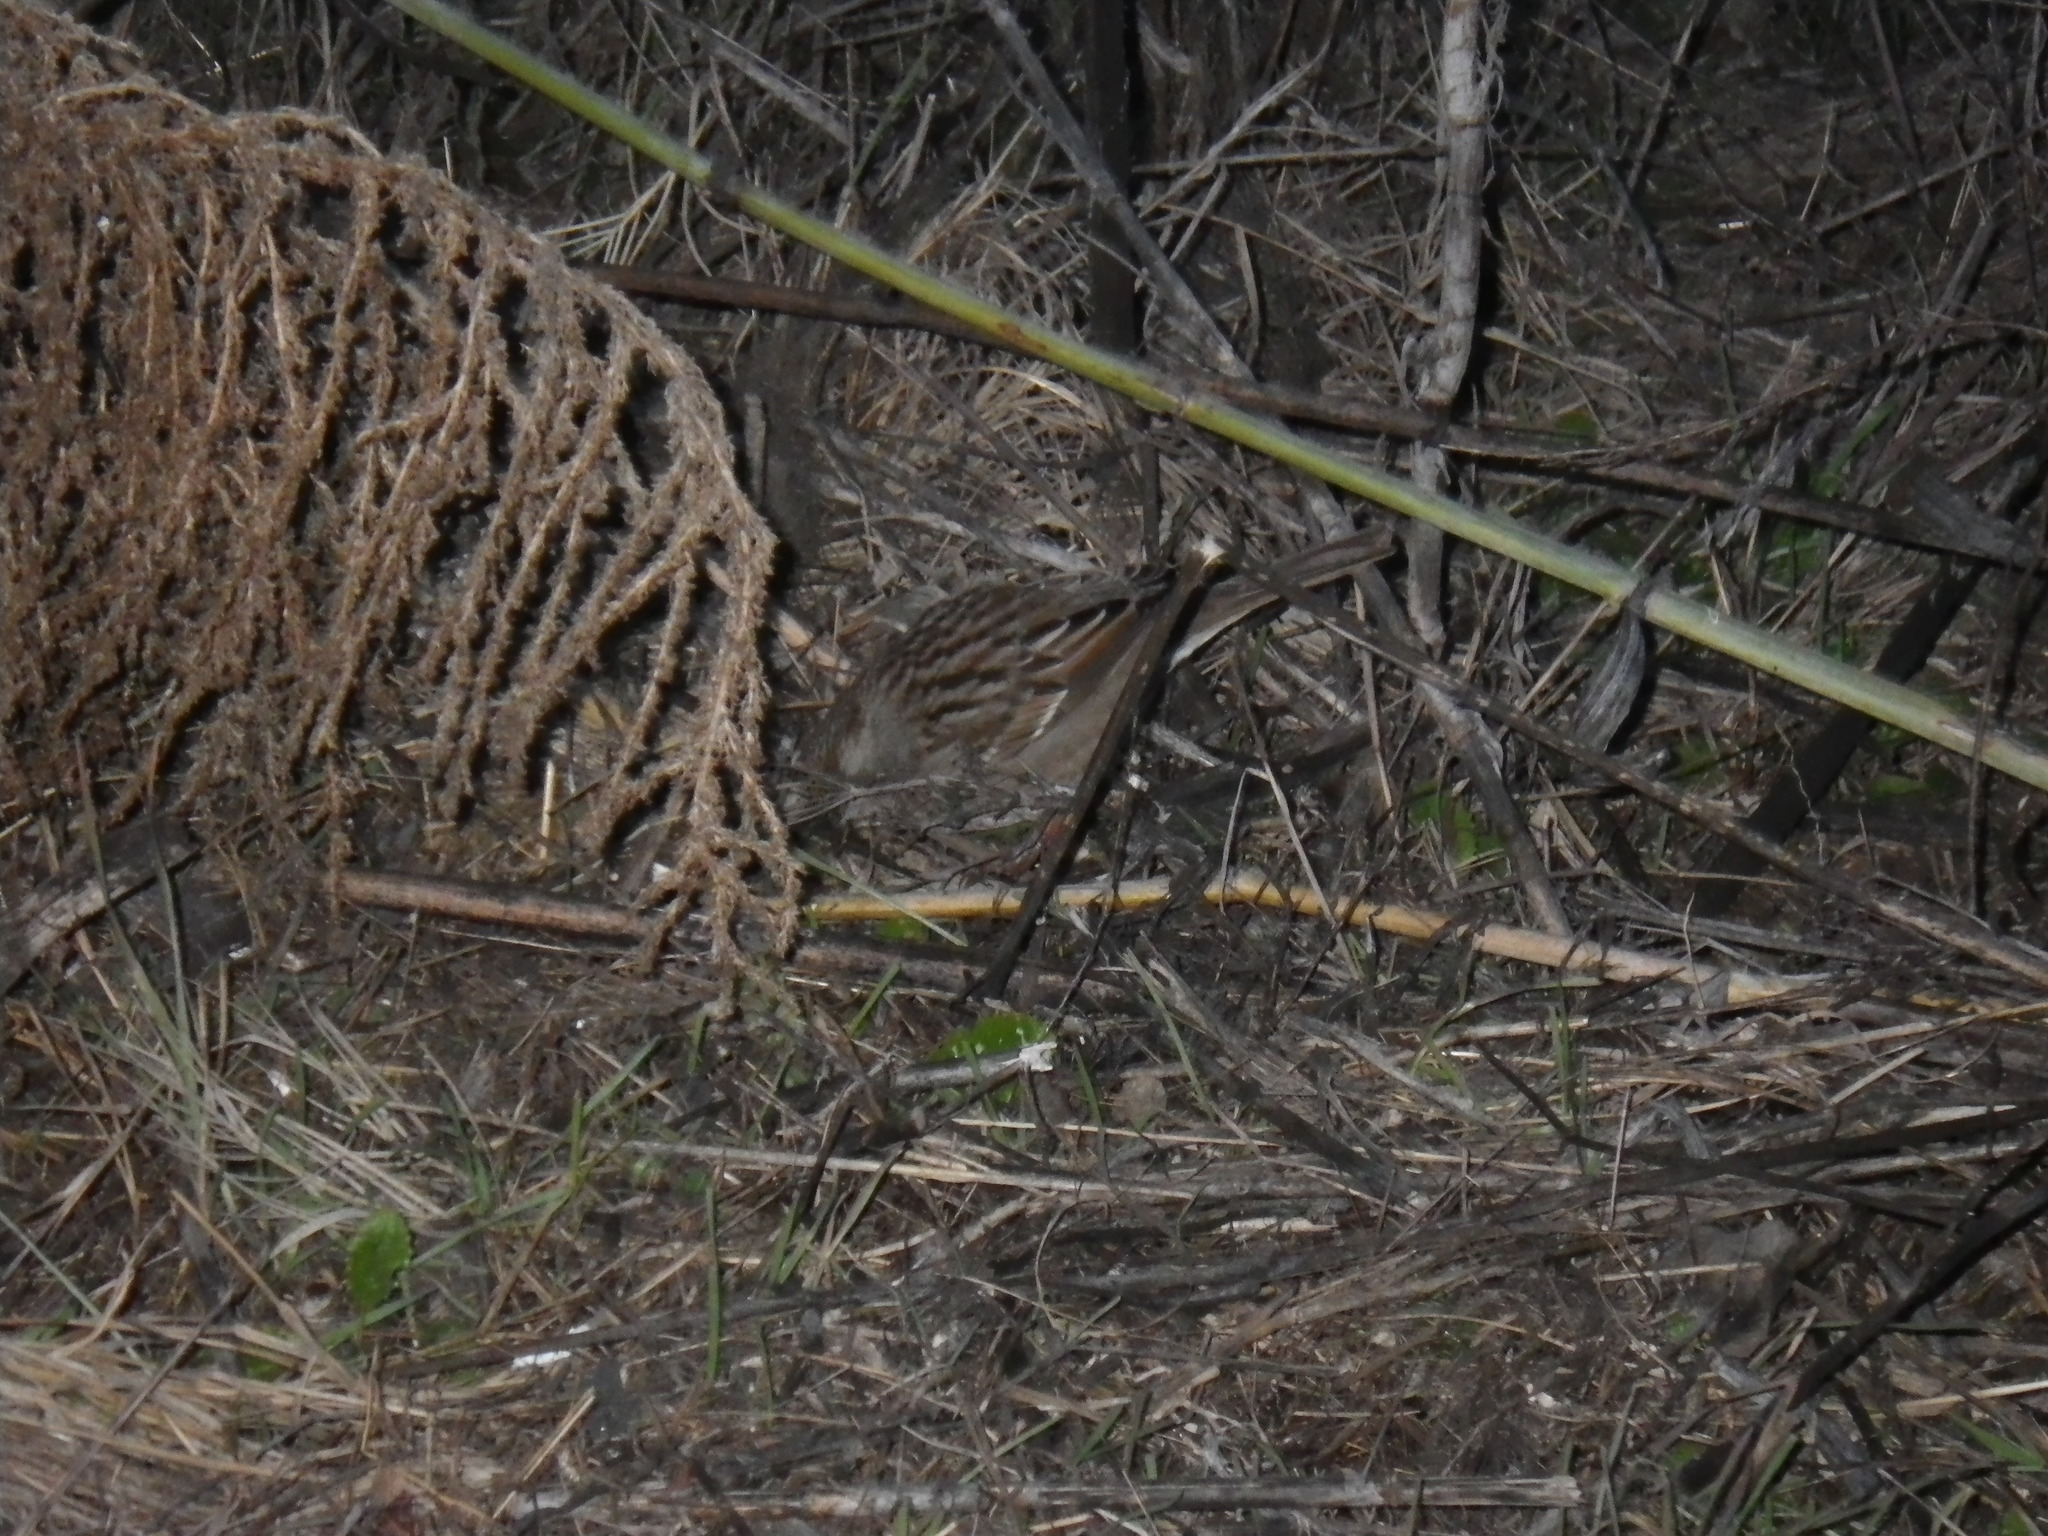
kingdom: Animalia
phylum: Chordata
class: Aves
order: Passeriformes
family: Passerellidae
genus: Zonotrichia
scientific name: Zonotrichia atricapilla
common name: Golden-crowned sparrow
